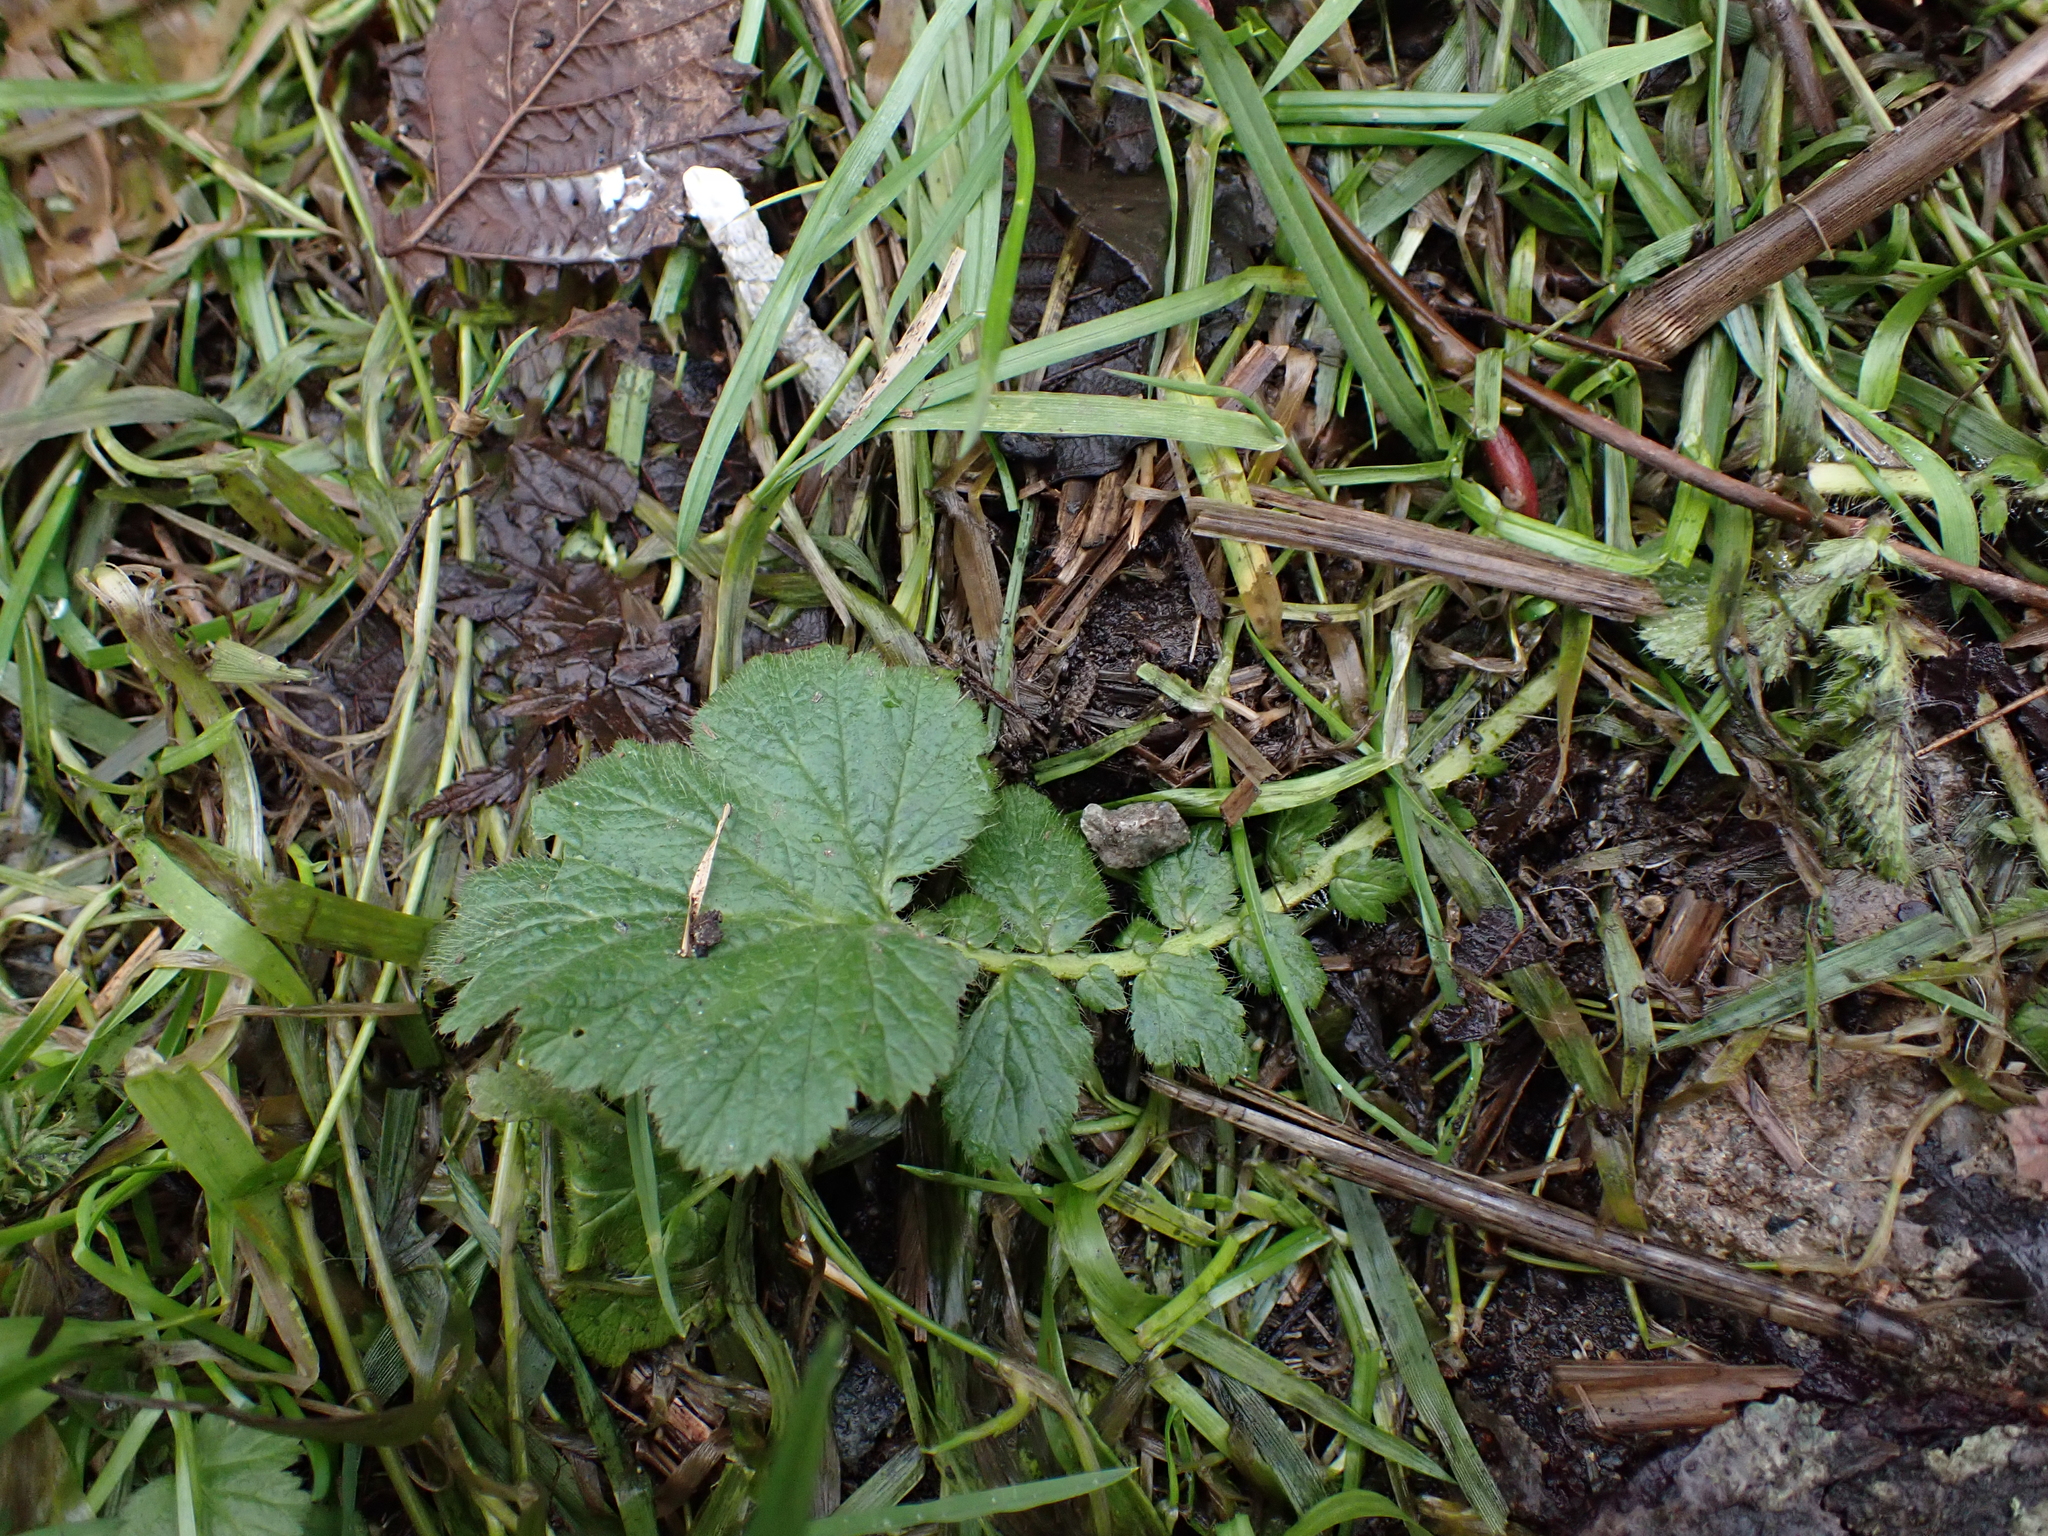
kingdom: Plantae
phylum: Tracheophyta
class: Magnoliopsida
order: Rosales
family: Rosaceae
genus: Geum
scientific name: Geum macrophyllum
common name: Large-leaved avens
